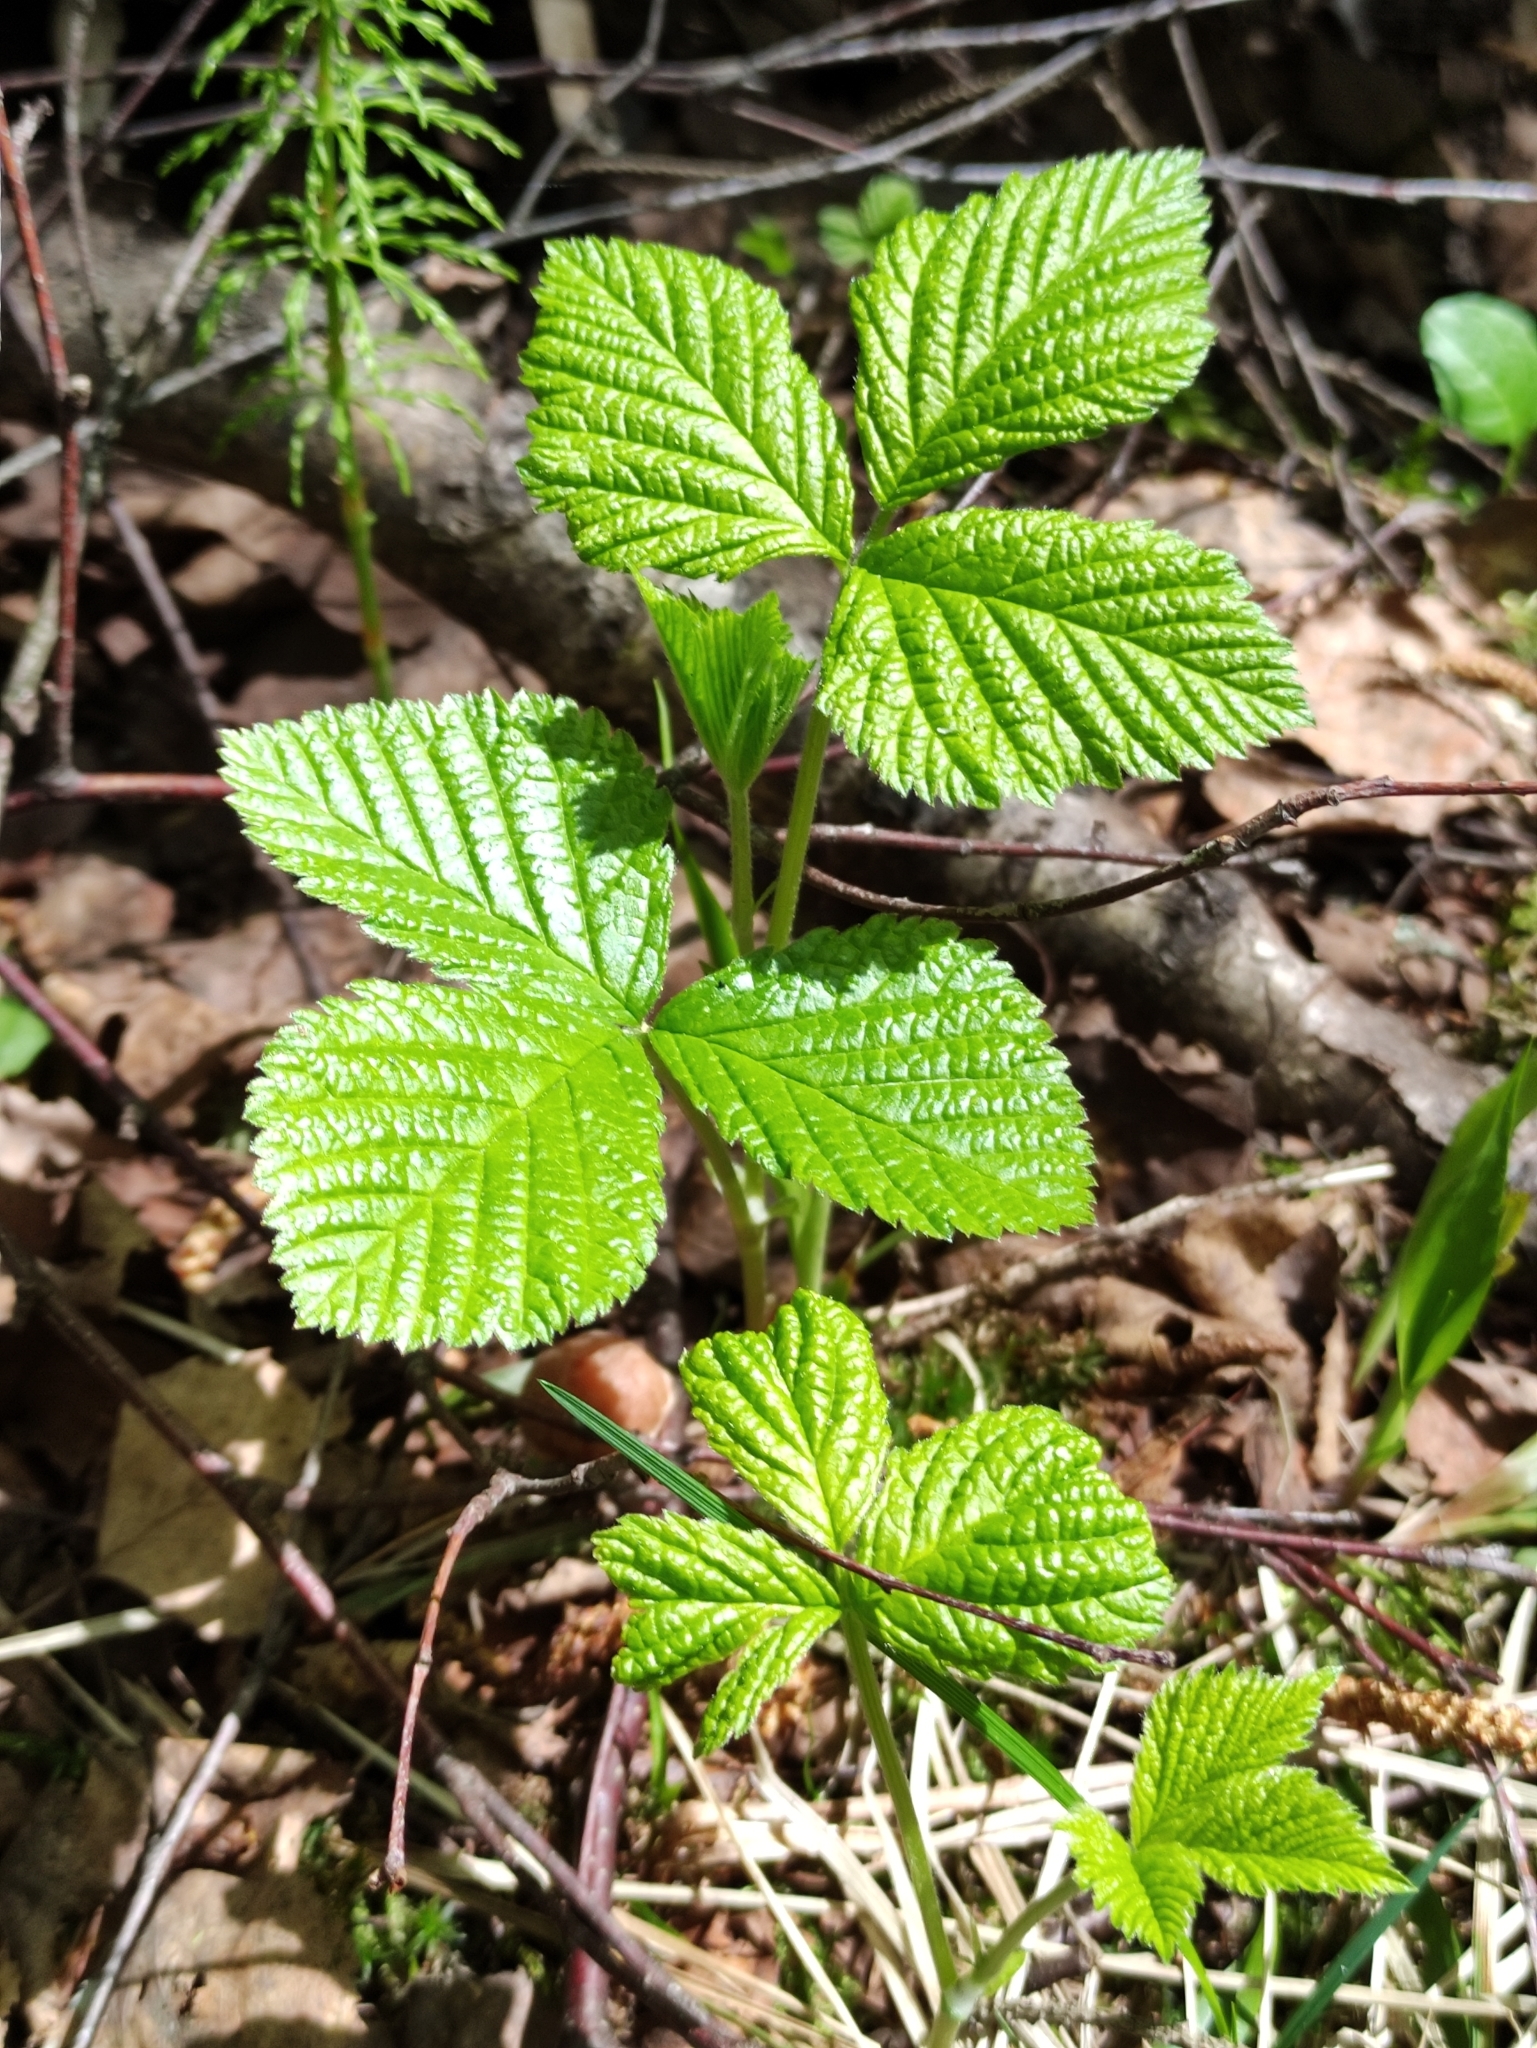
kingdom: Plantae
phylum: Tracheophyta
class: Magnoliopsida
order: Rosales
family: Rosaceae
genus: Rubus
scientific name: Rubus saxatilis
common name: Stone bramble
